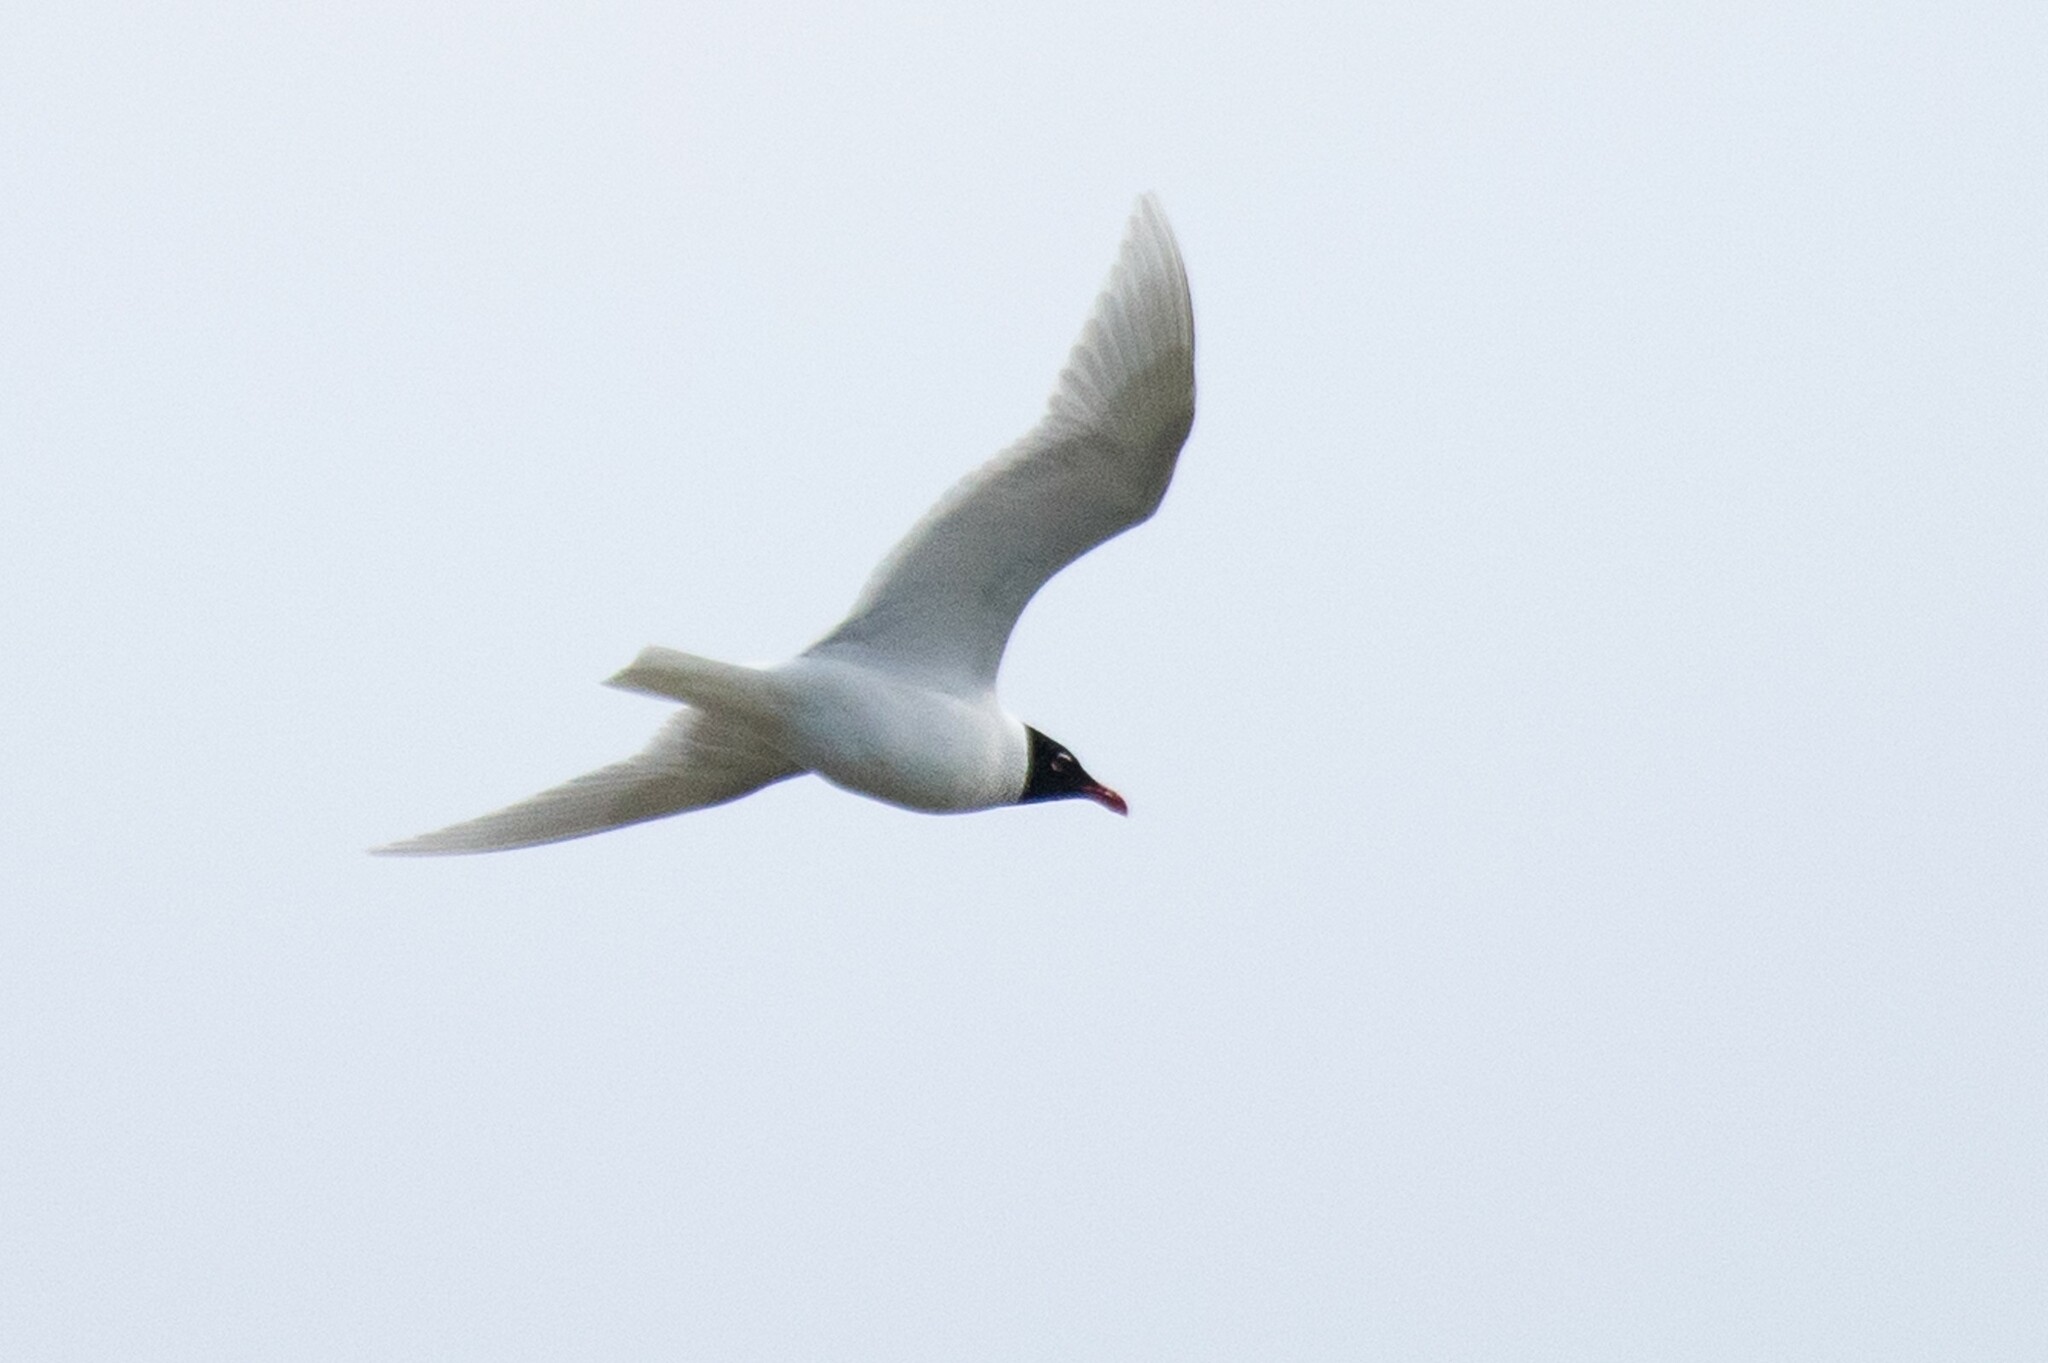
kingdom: Animalia
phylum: Chordata
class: Aves
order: Charadriiformes
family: Laridae
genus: Ichthyaetus
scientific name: Ichthyaetus melanocephalus
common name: Mediterranean gull
